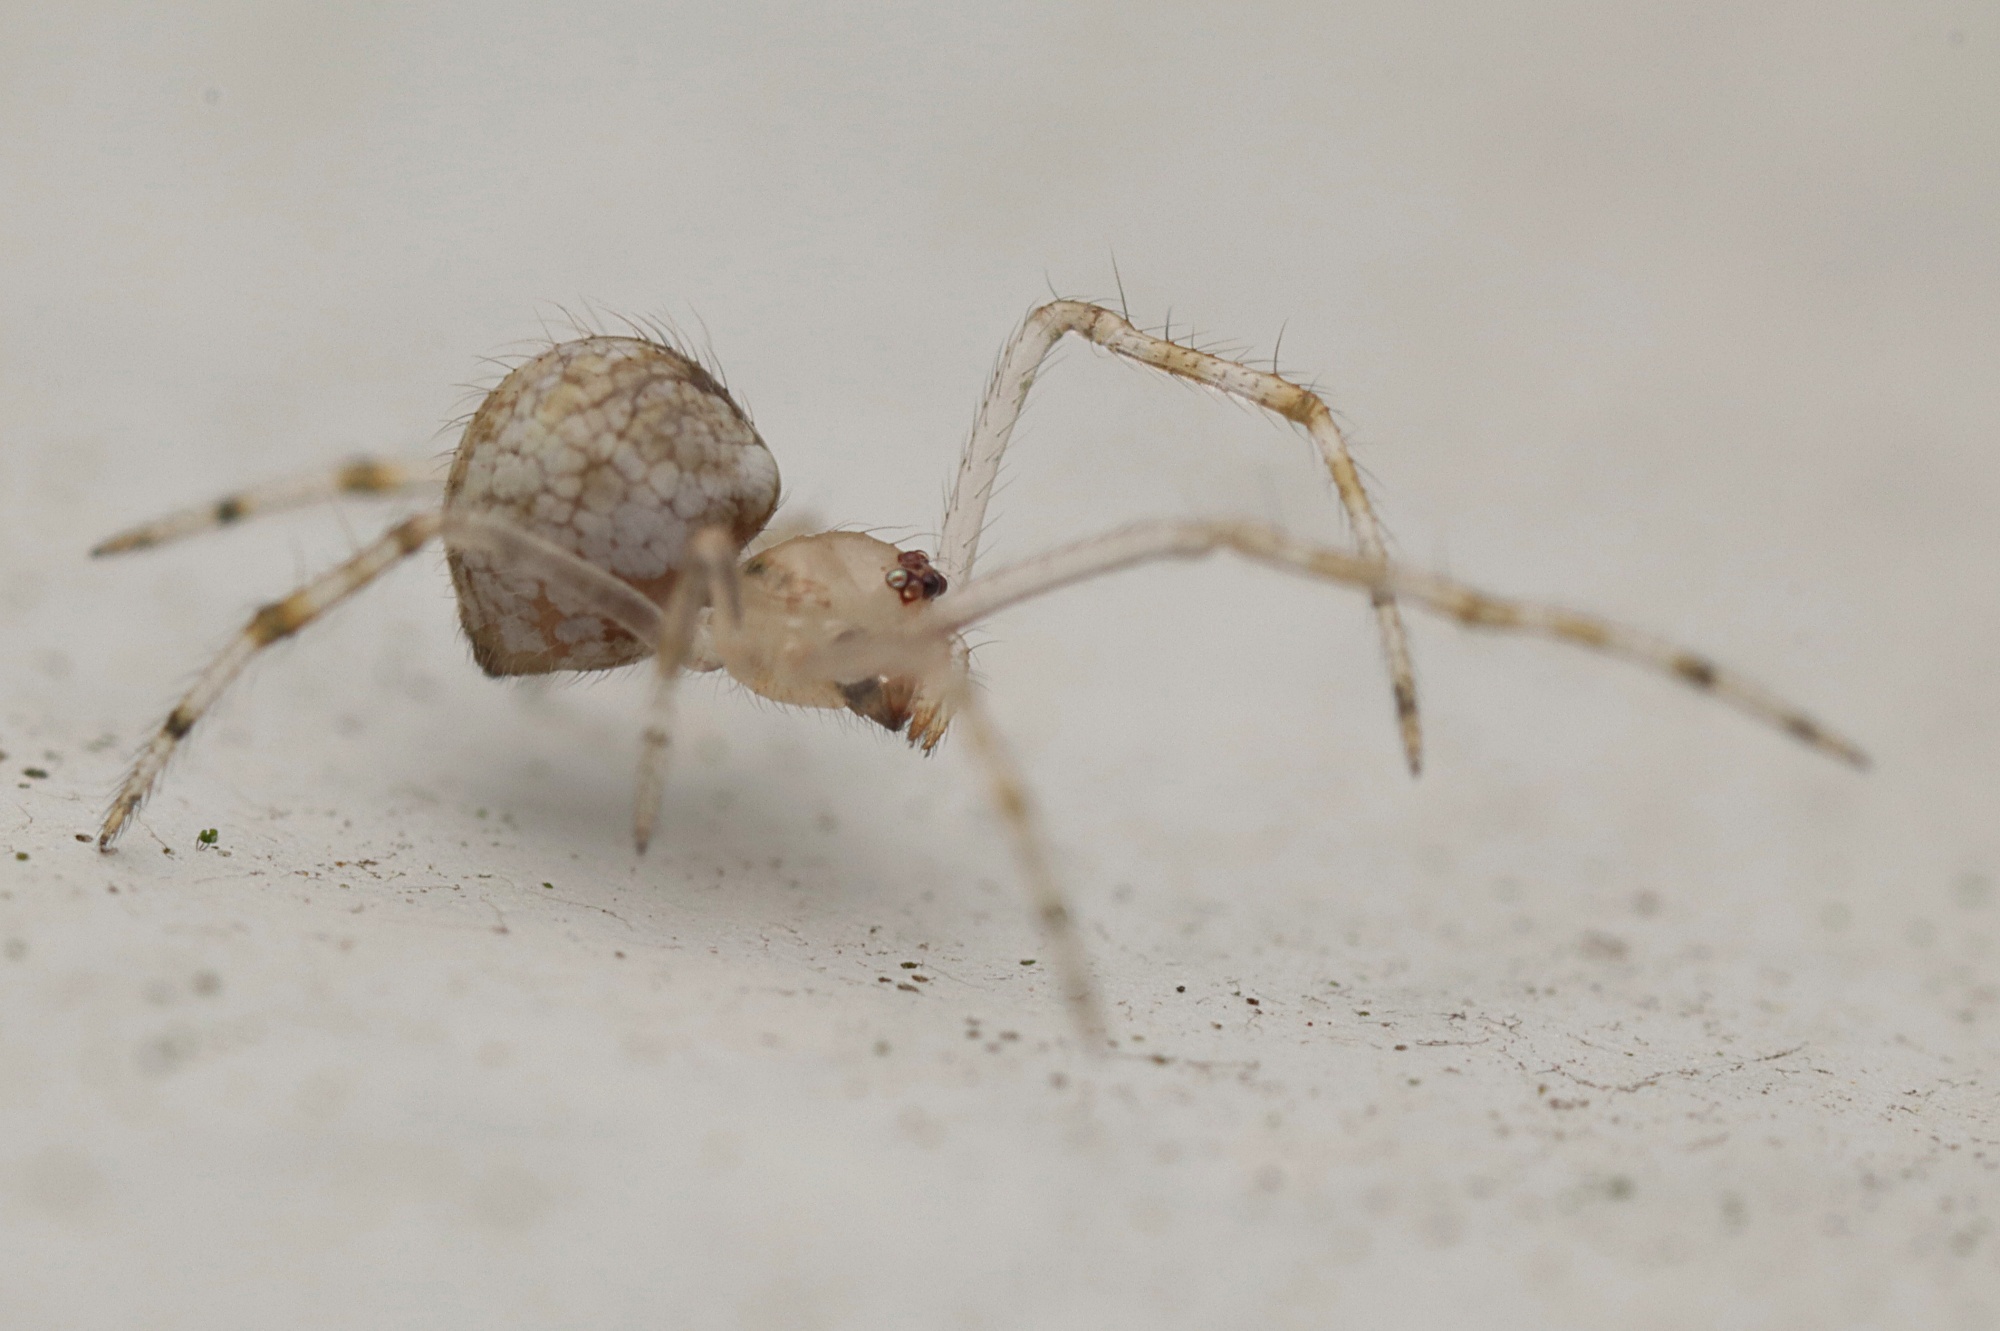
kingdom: Animalia
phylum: Arthropoda
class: Arachnida
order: Araneae
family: Theridiidae
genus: Cryptachaea
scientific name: Cryptachaea gigantipes
